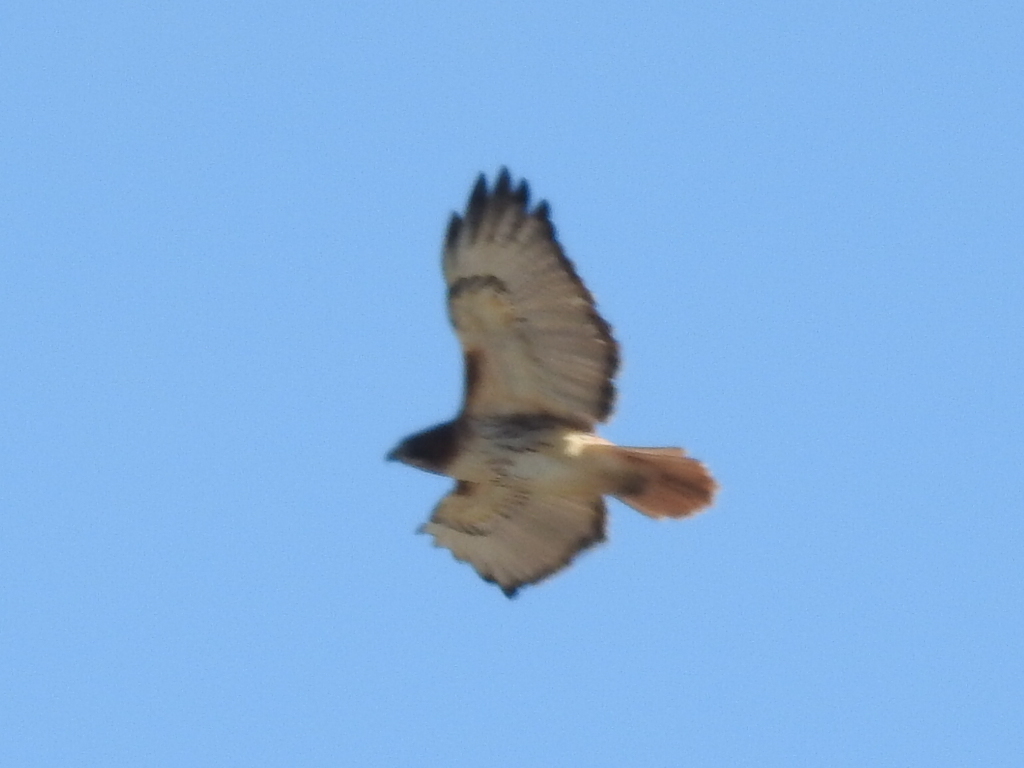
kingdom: Animalia
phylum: Chordata
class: Aves
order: Accipitriformes
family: Accipitridae
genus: Buteo
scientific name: Buteo jamaicensis
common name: Red-tailed hawk
